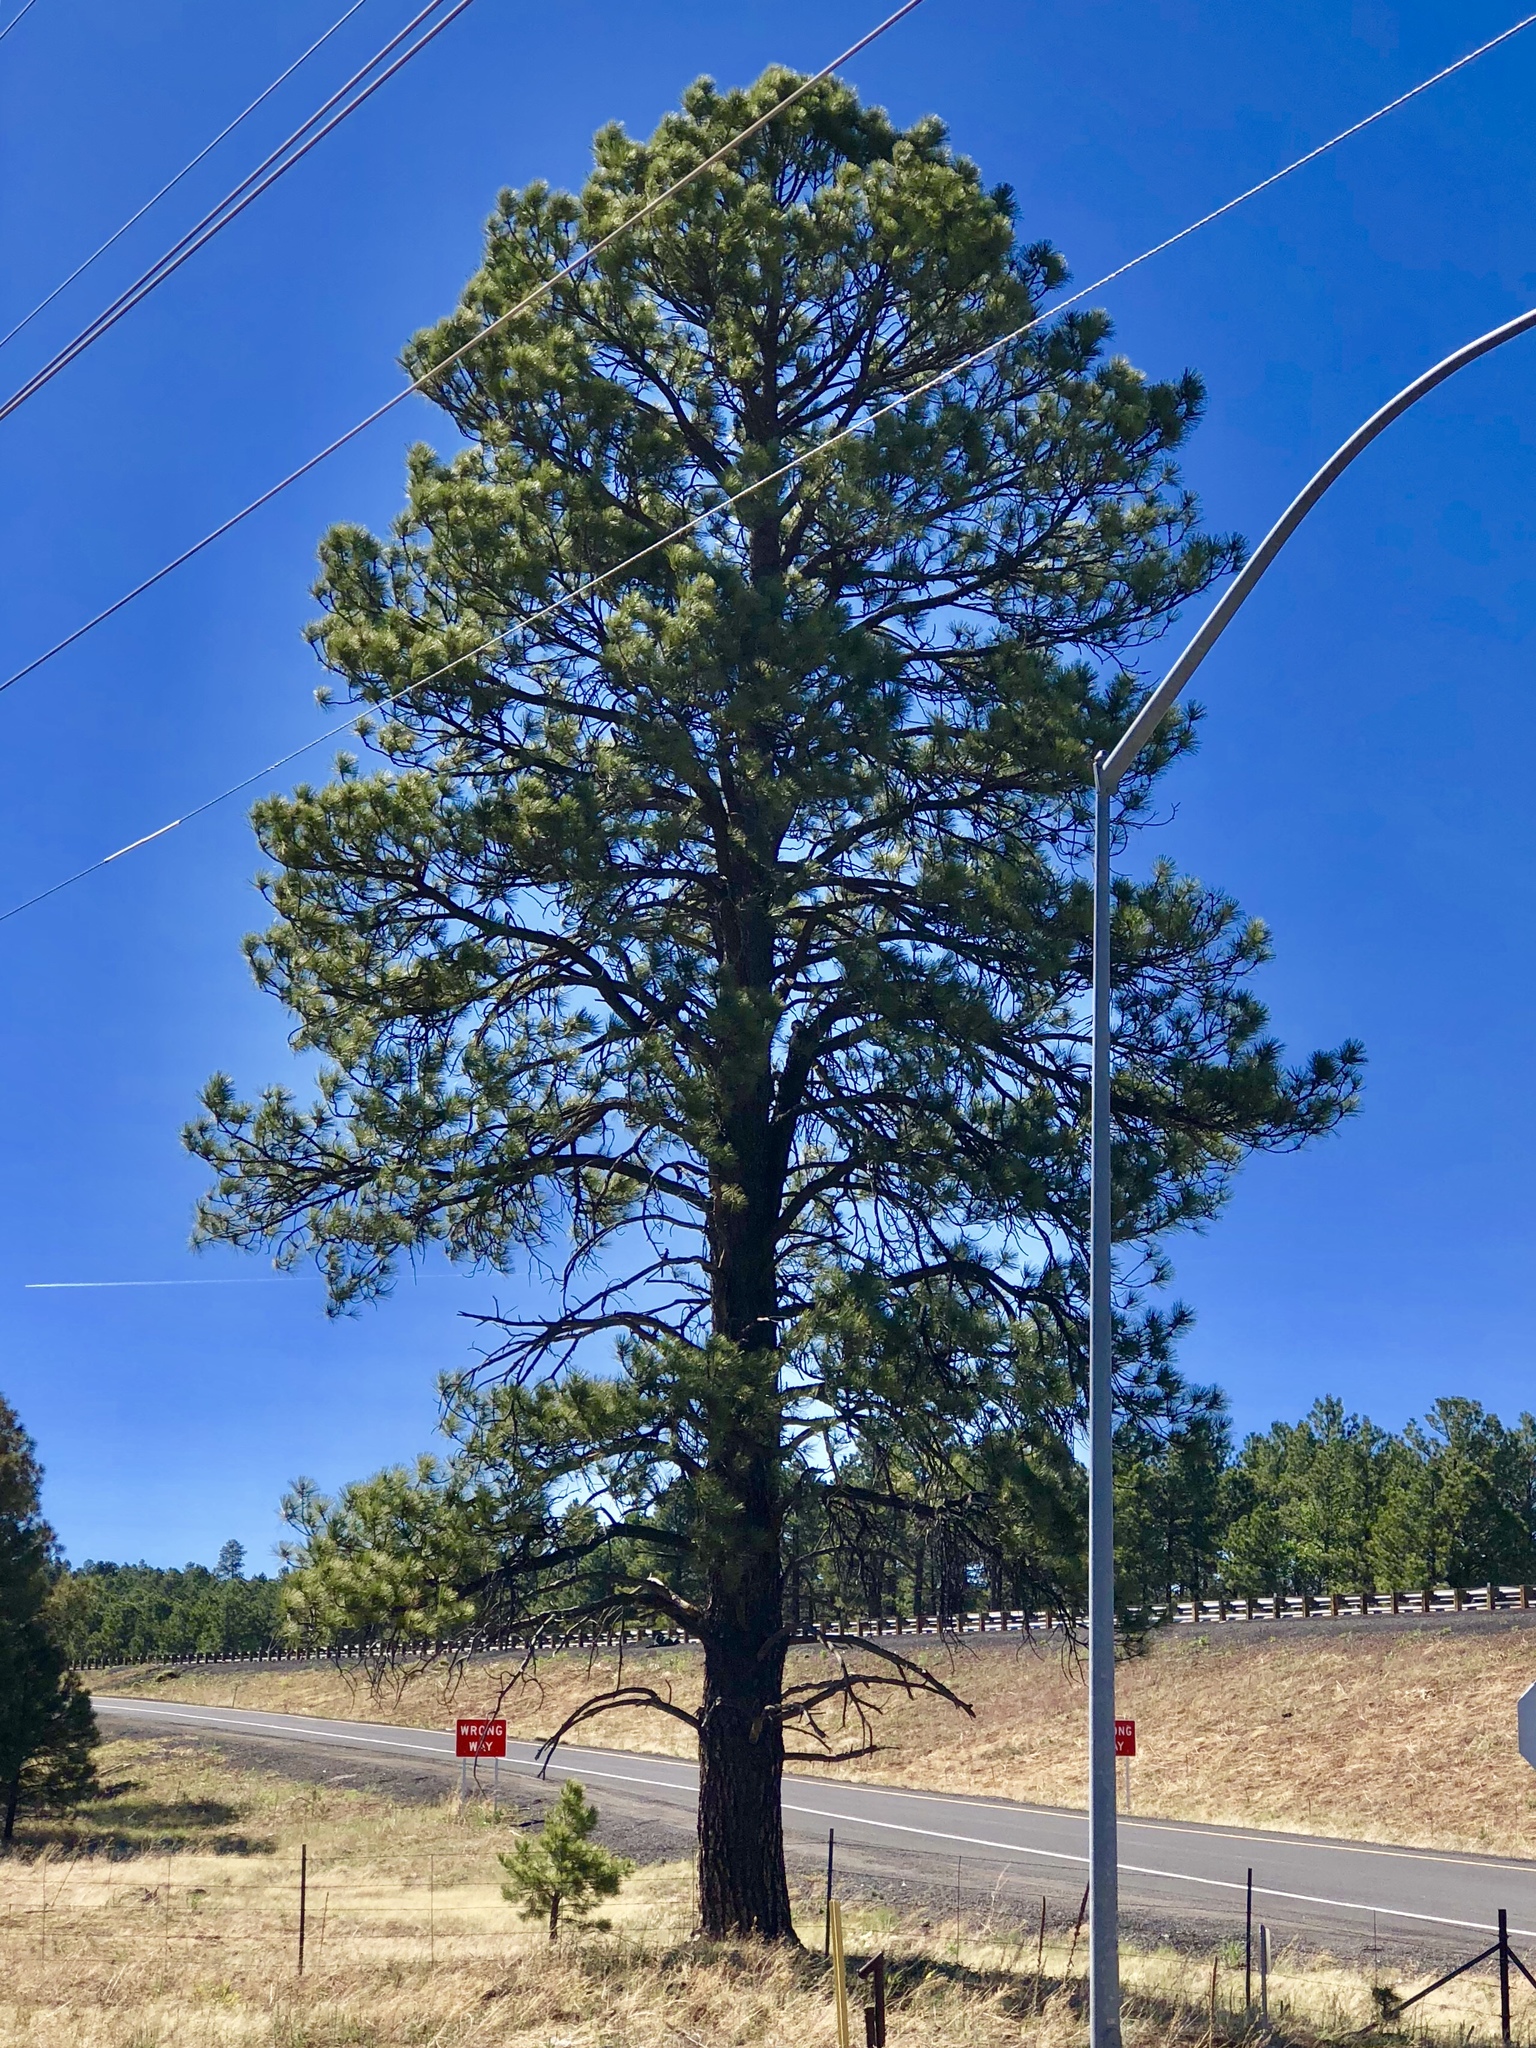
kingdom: Plantae
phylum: Tracheophyta
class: Pinopsida
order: Pinales
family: Pinaceae
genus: Pinus
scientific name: Pinus ponderosa
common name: Western yellow-pine
